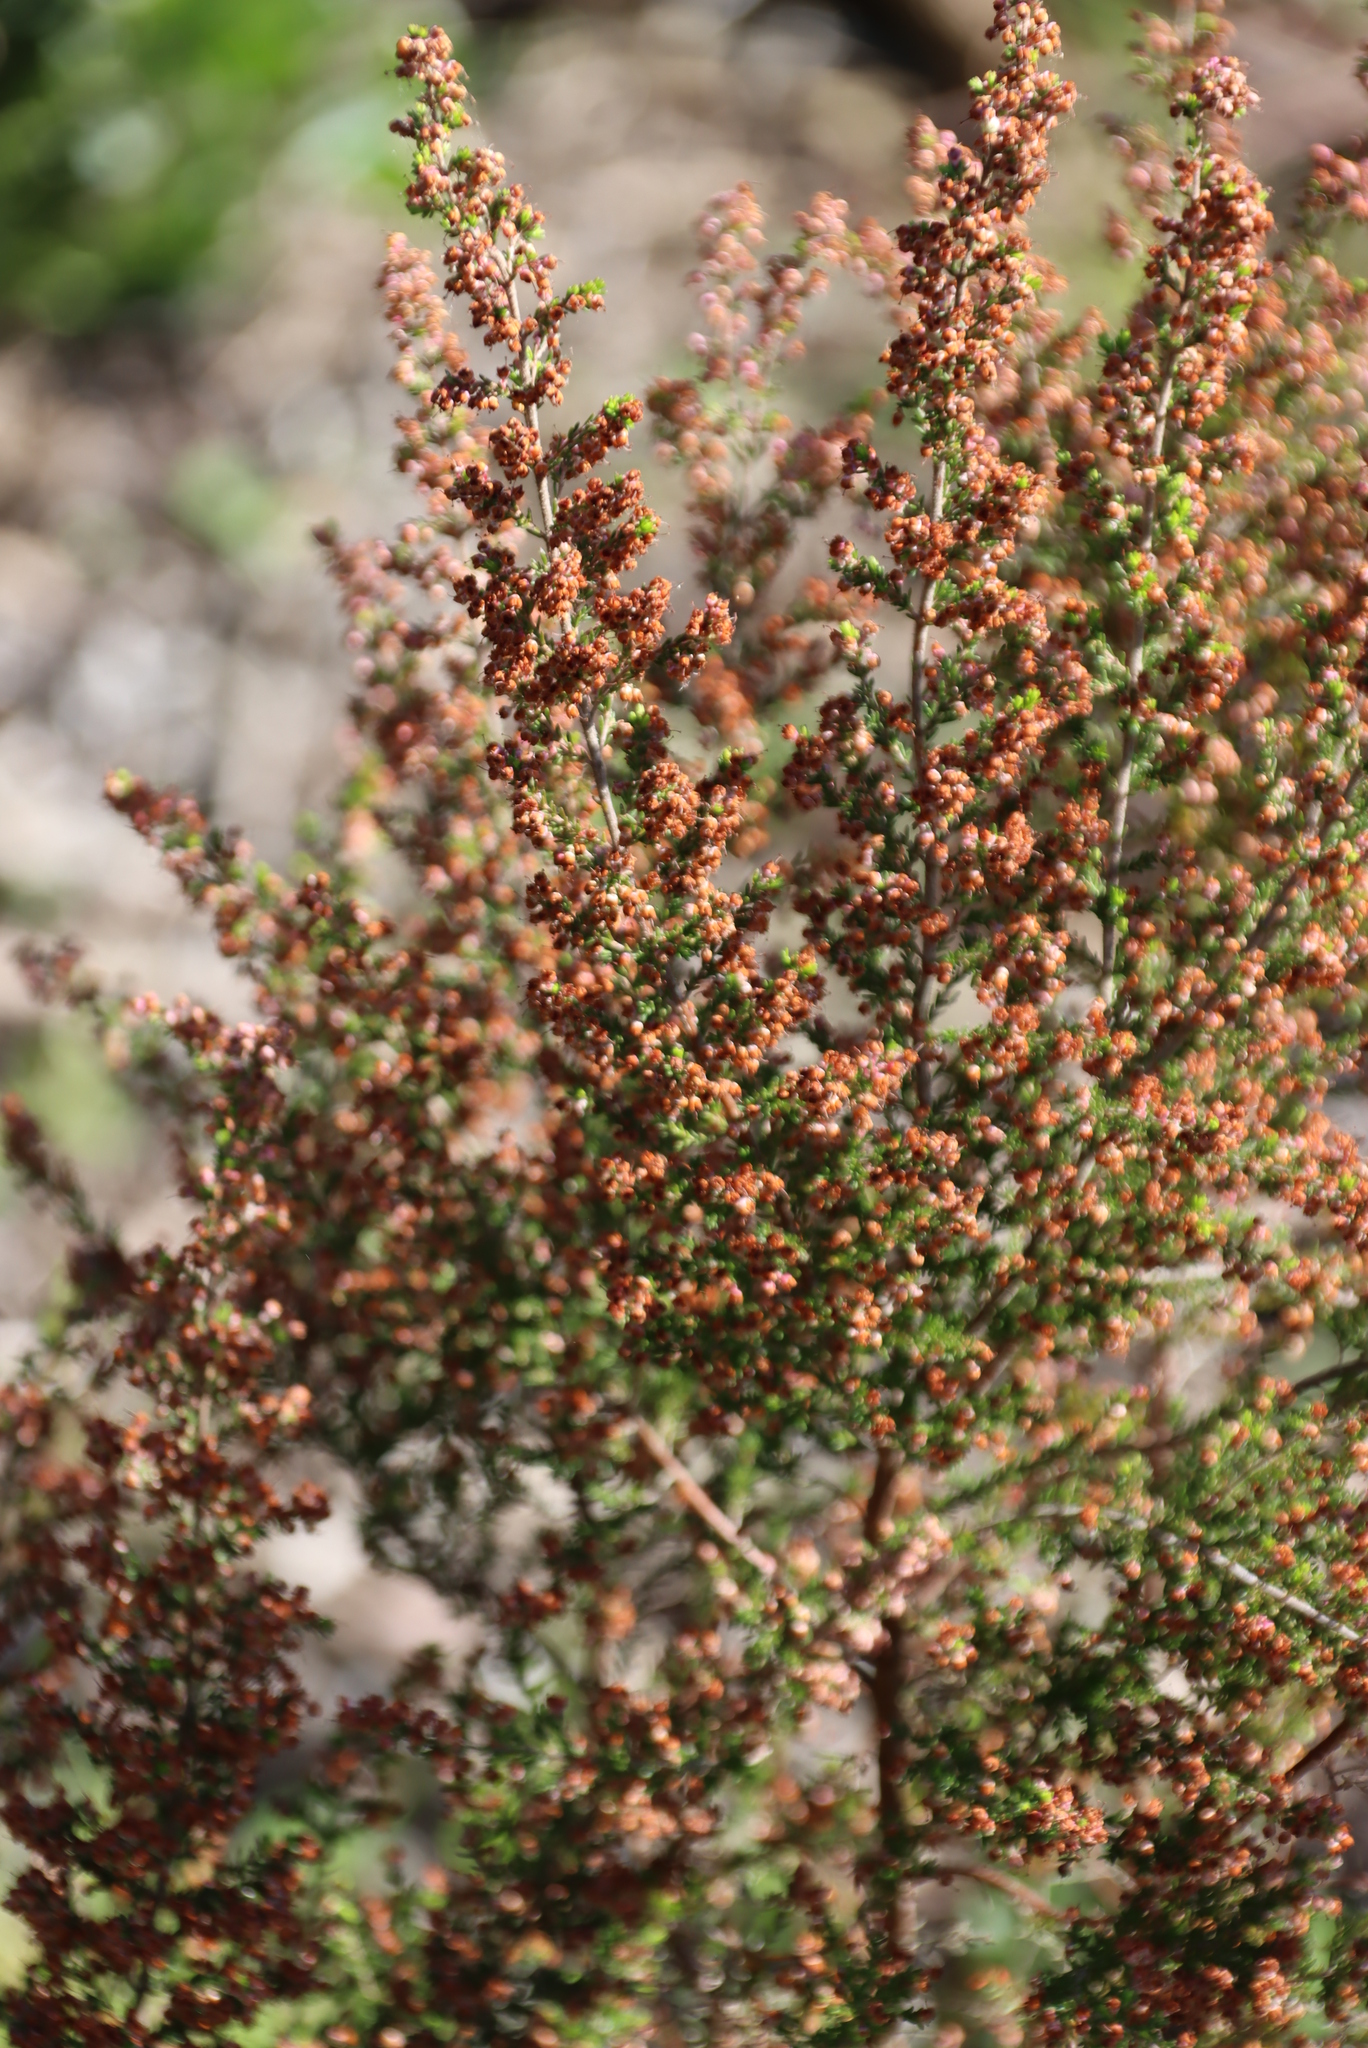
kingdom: Plantae
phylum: Tracheophyta
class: Magnoliopsida
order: Ericales
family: Ericaceae
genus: Erica
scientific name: Erica sparsa
